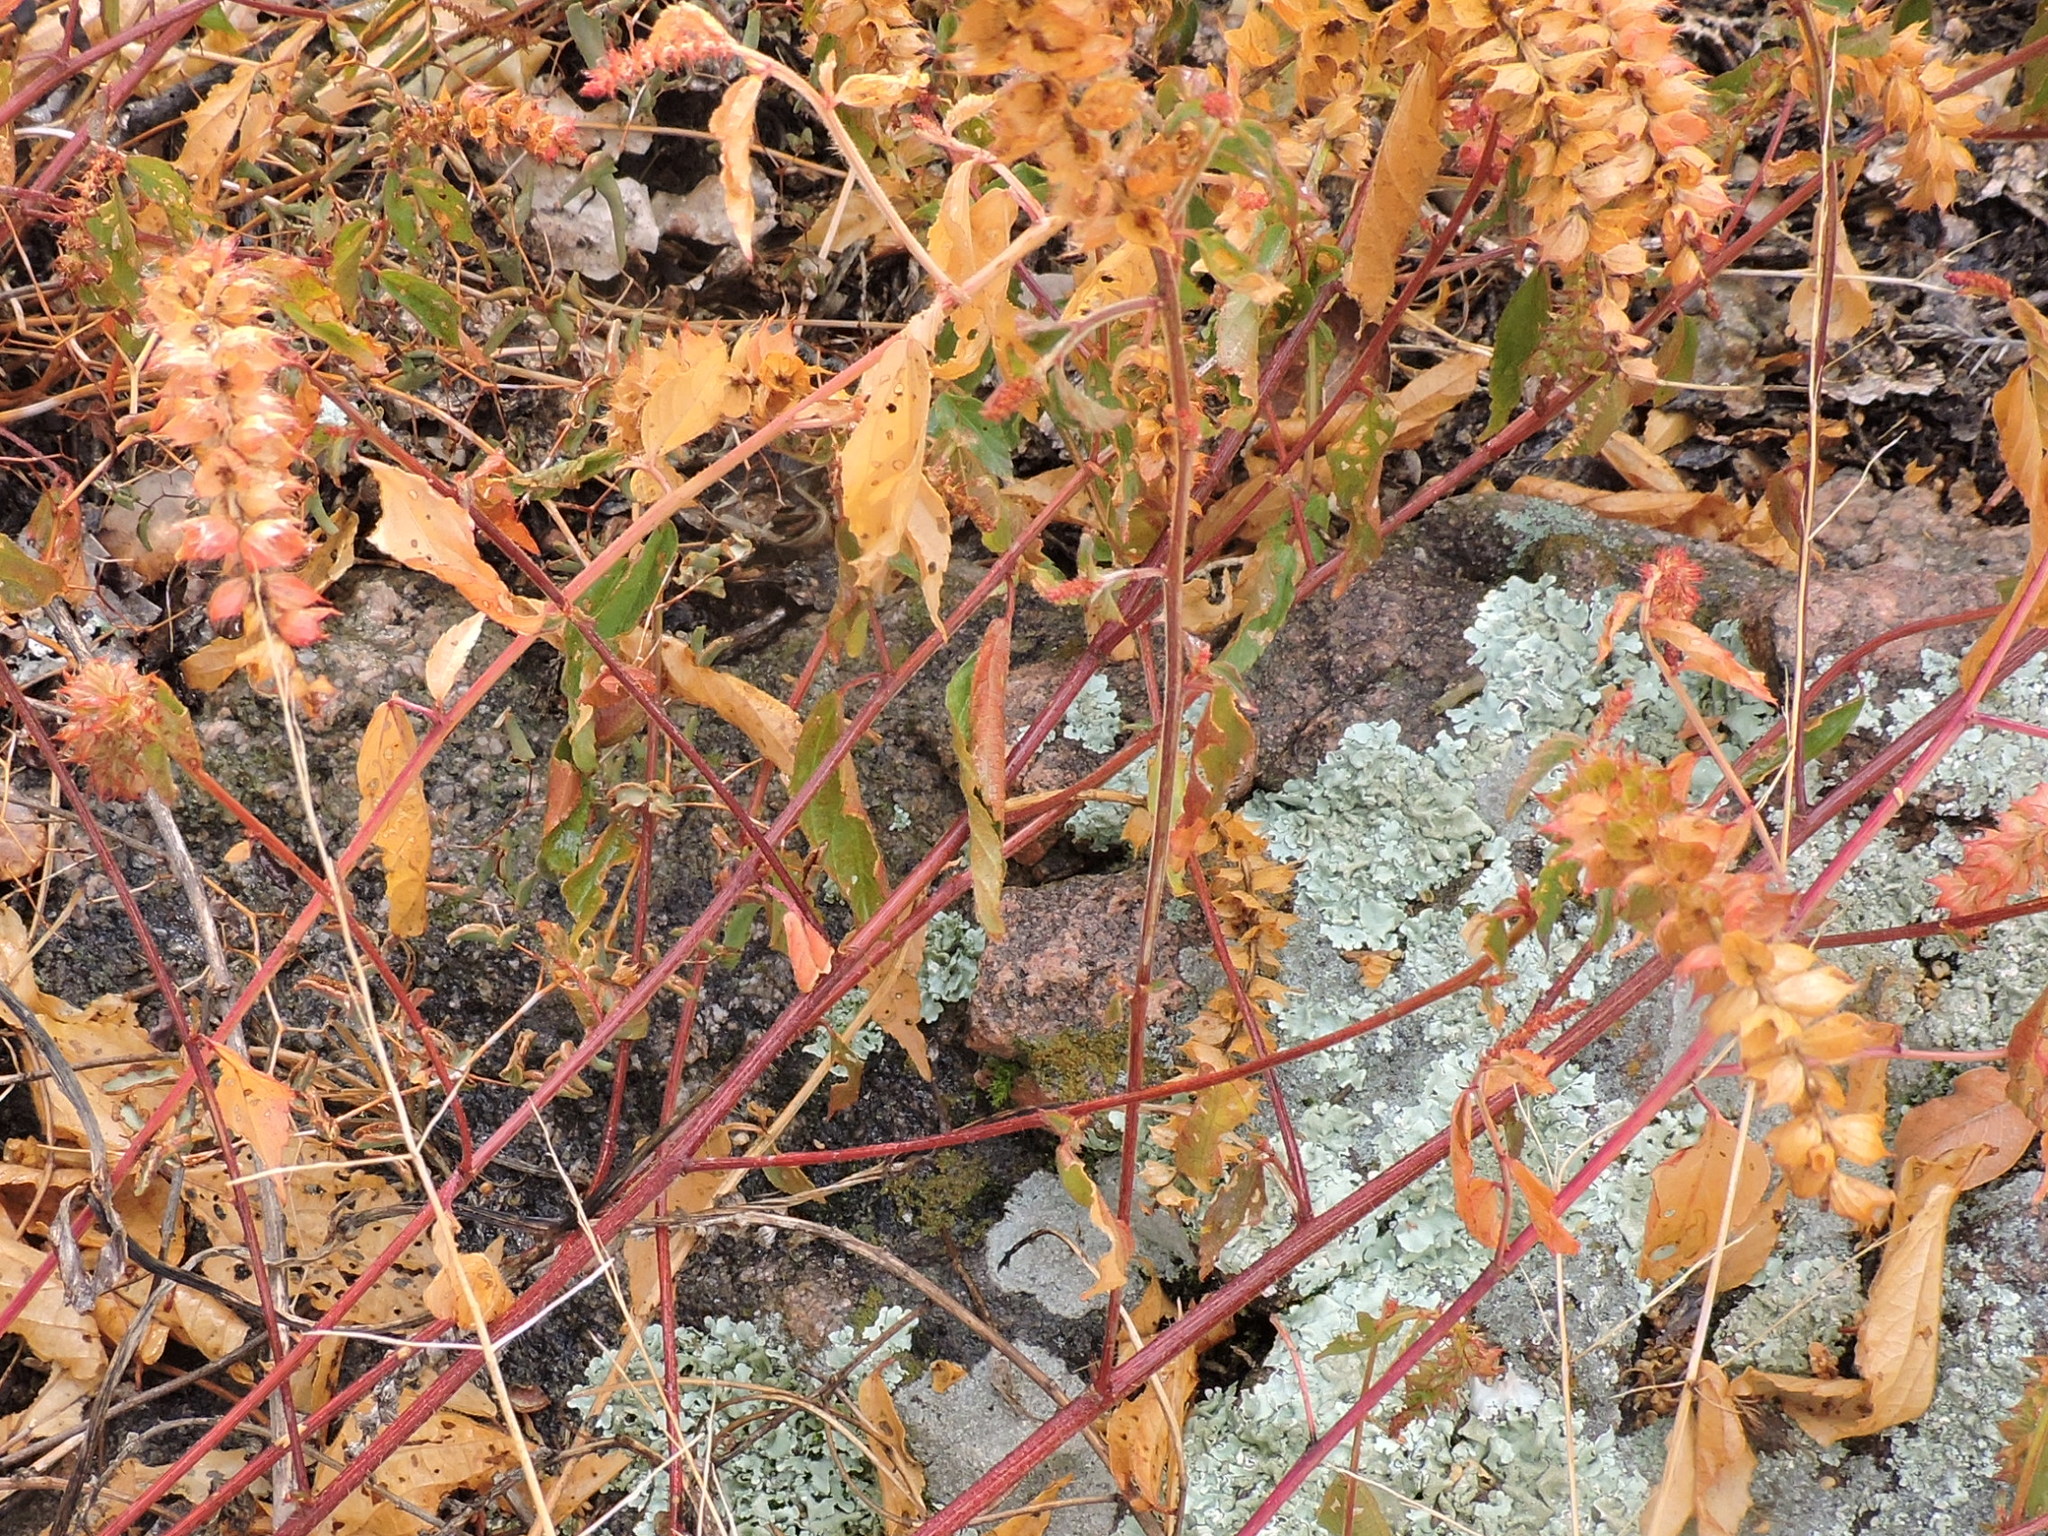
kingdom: Plantae
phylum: Tracheophyta
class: Magnoliopsida
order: Malpighiales
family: Euphorbiaceae
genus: Acalypha
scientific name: Acalypha phleoides
